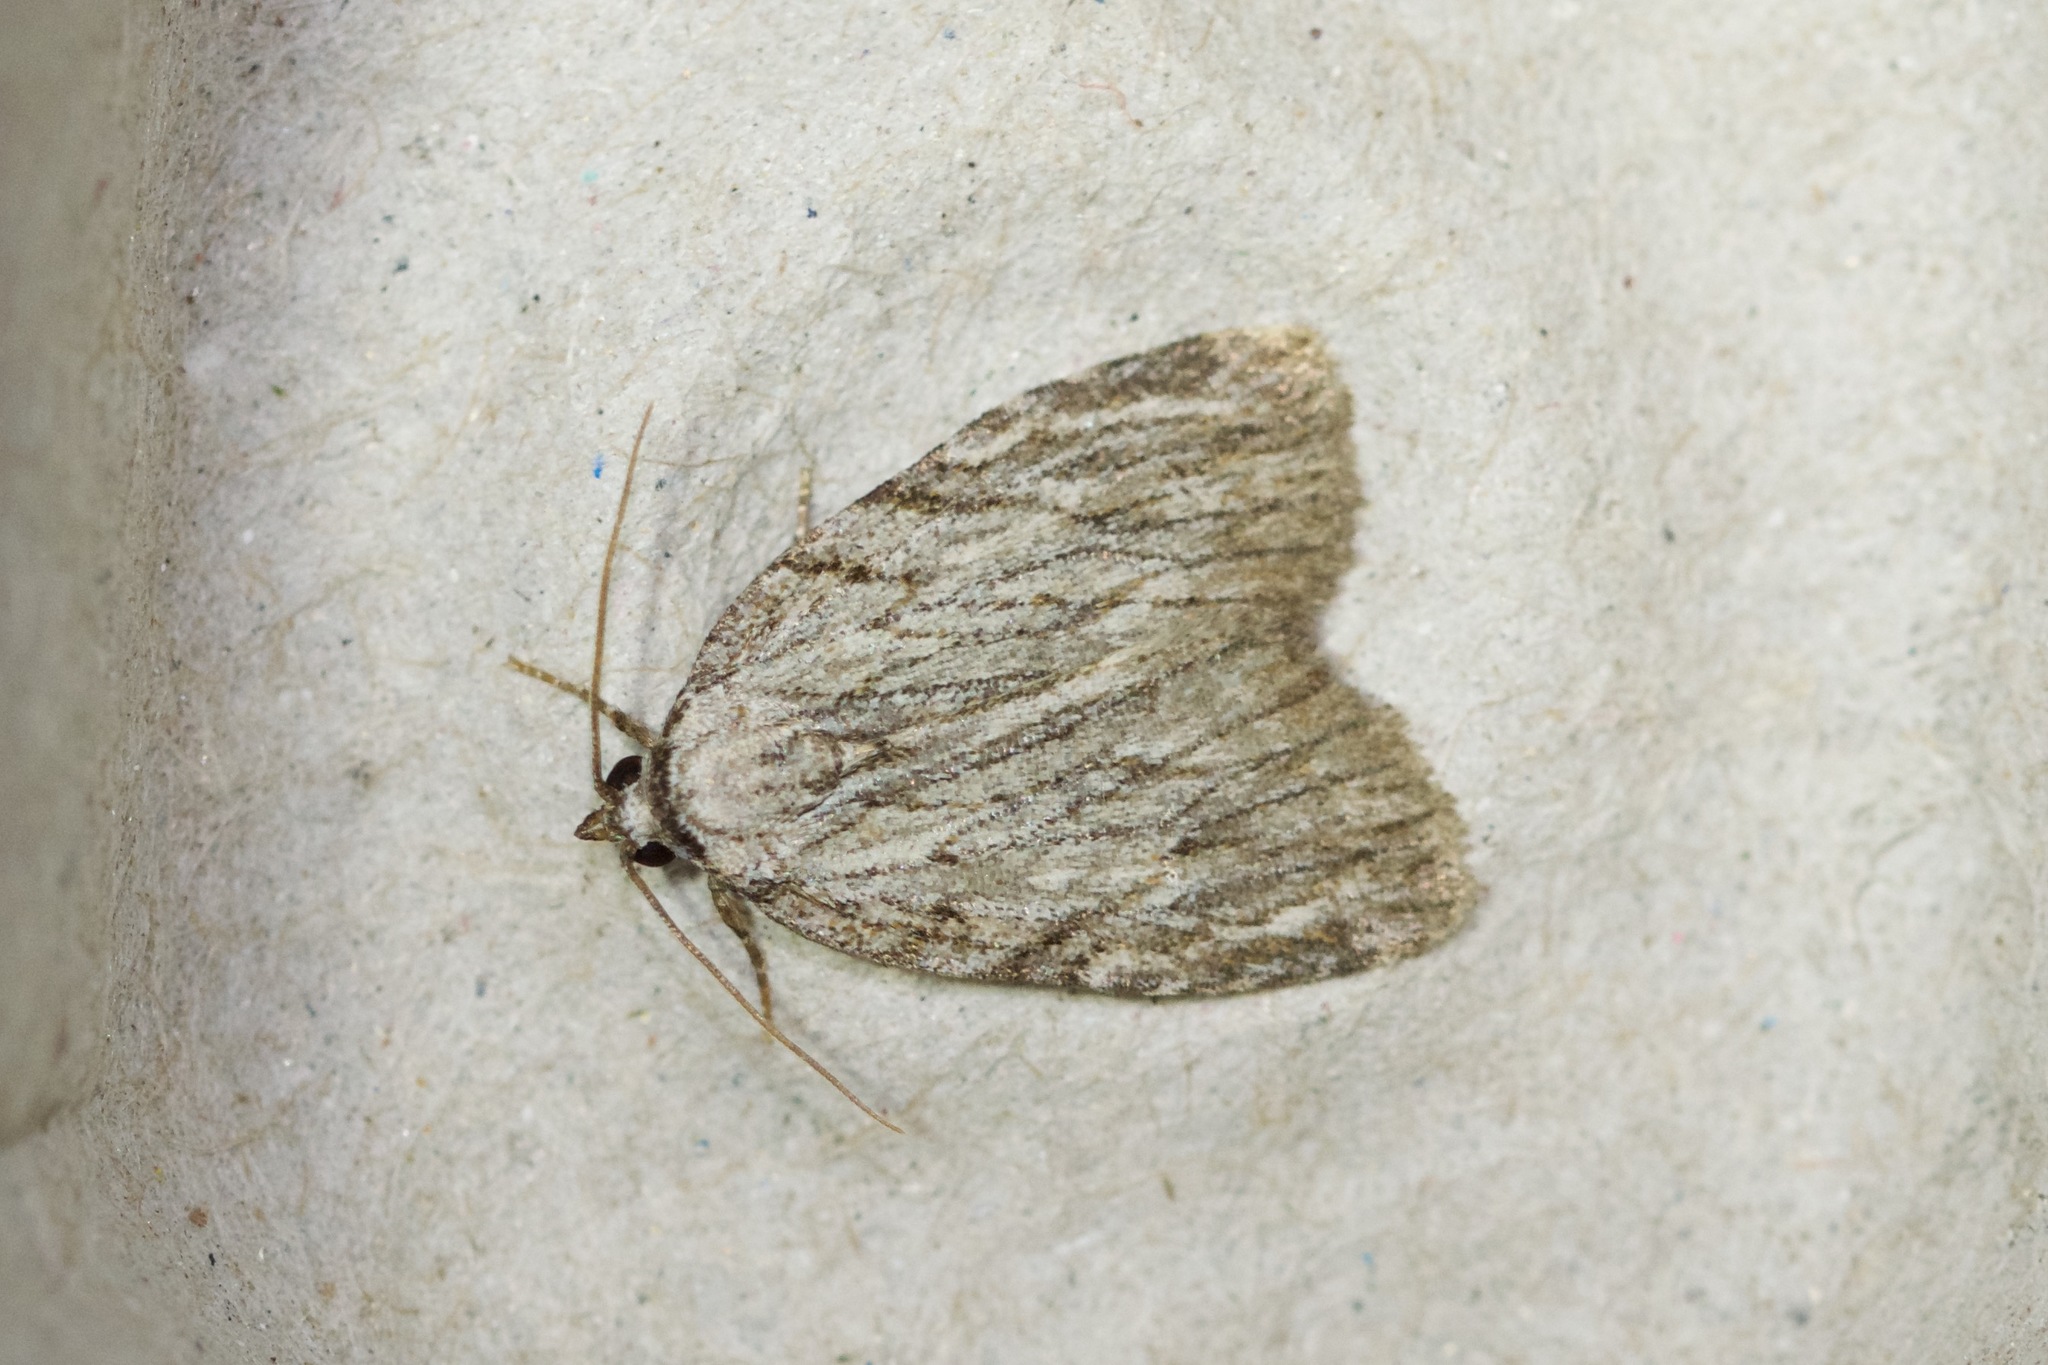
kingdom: Animalia
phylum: Arthropoda
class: Insecta
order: Lepidoptera
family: Noctuidae
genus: Balsa
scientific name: Balsa tristrigella
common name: Three-lined balsa moth
